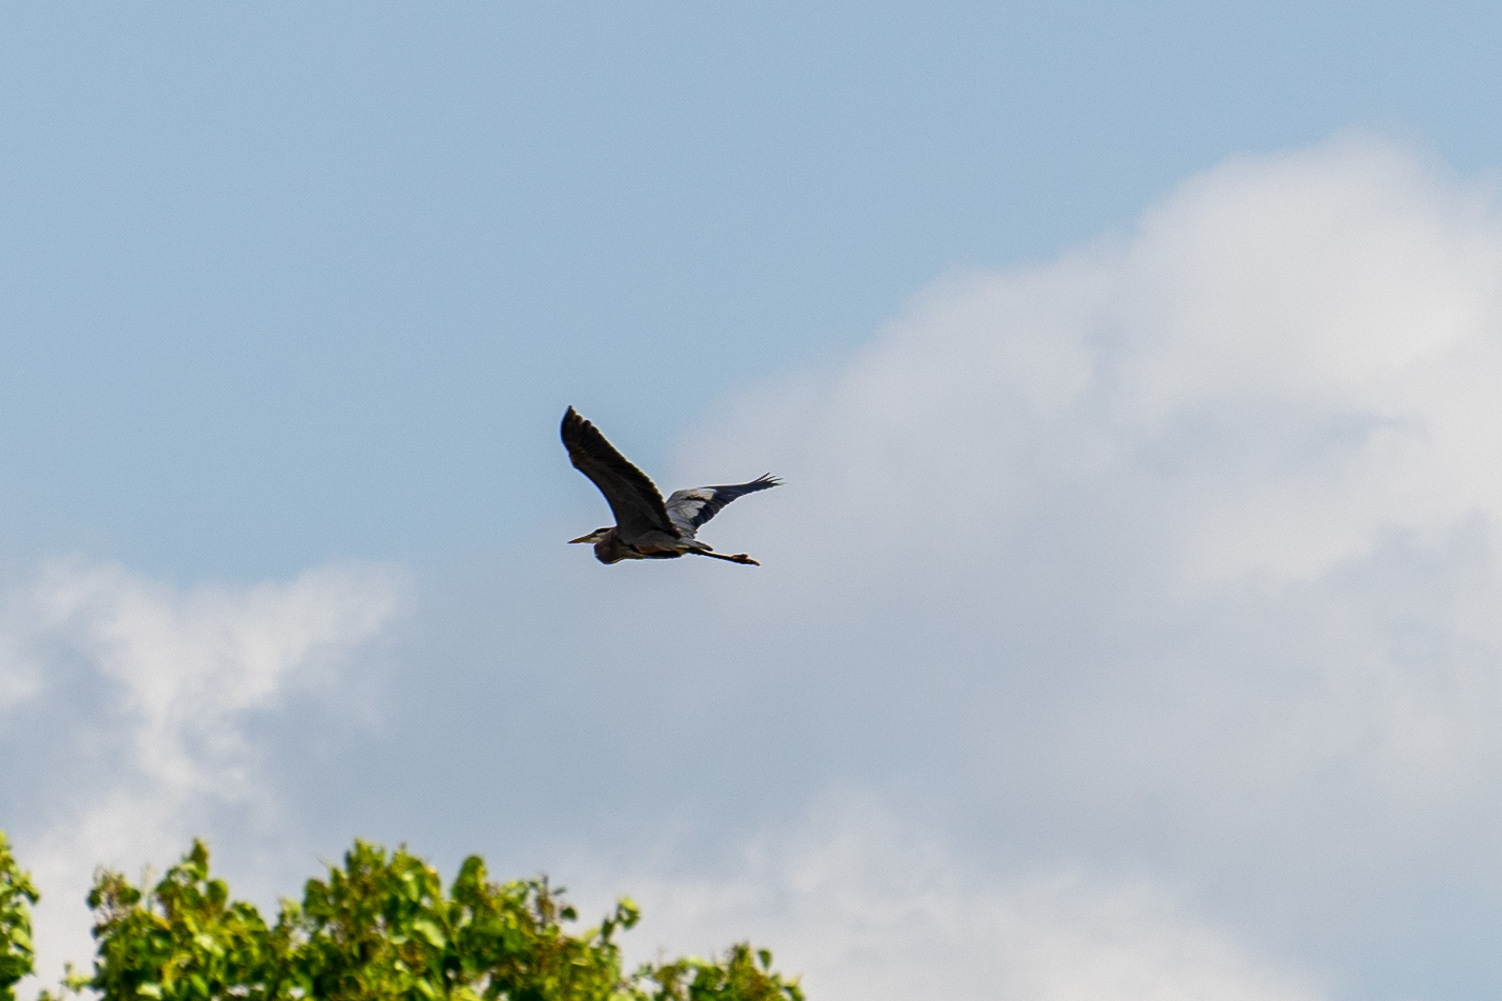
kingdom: Animalia
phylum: Chordata
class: Aves
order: Pelecaniformes
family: Ardeidae
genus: Ardea
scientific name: Ardea herodias
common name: Great blue heron
